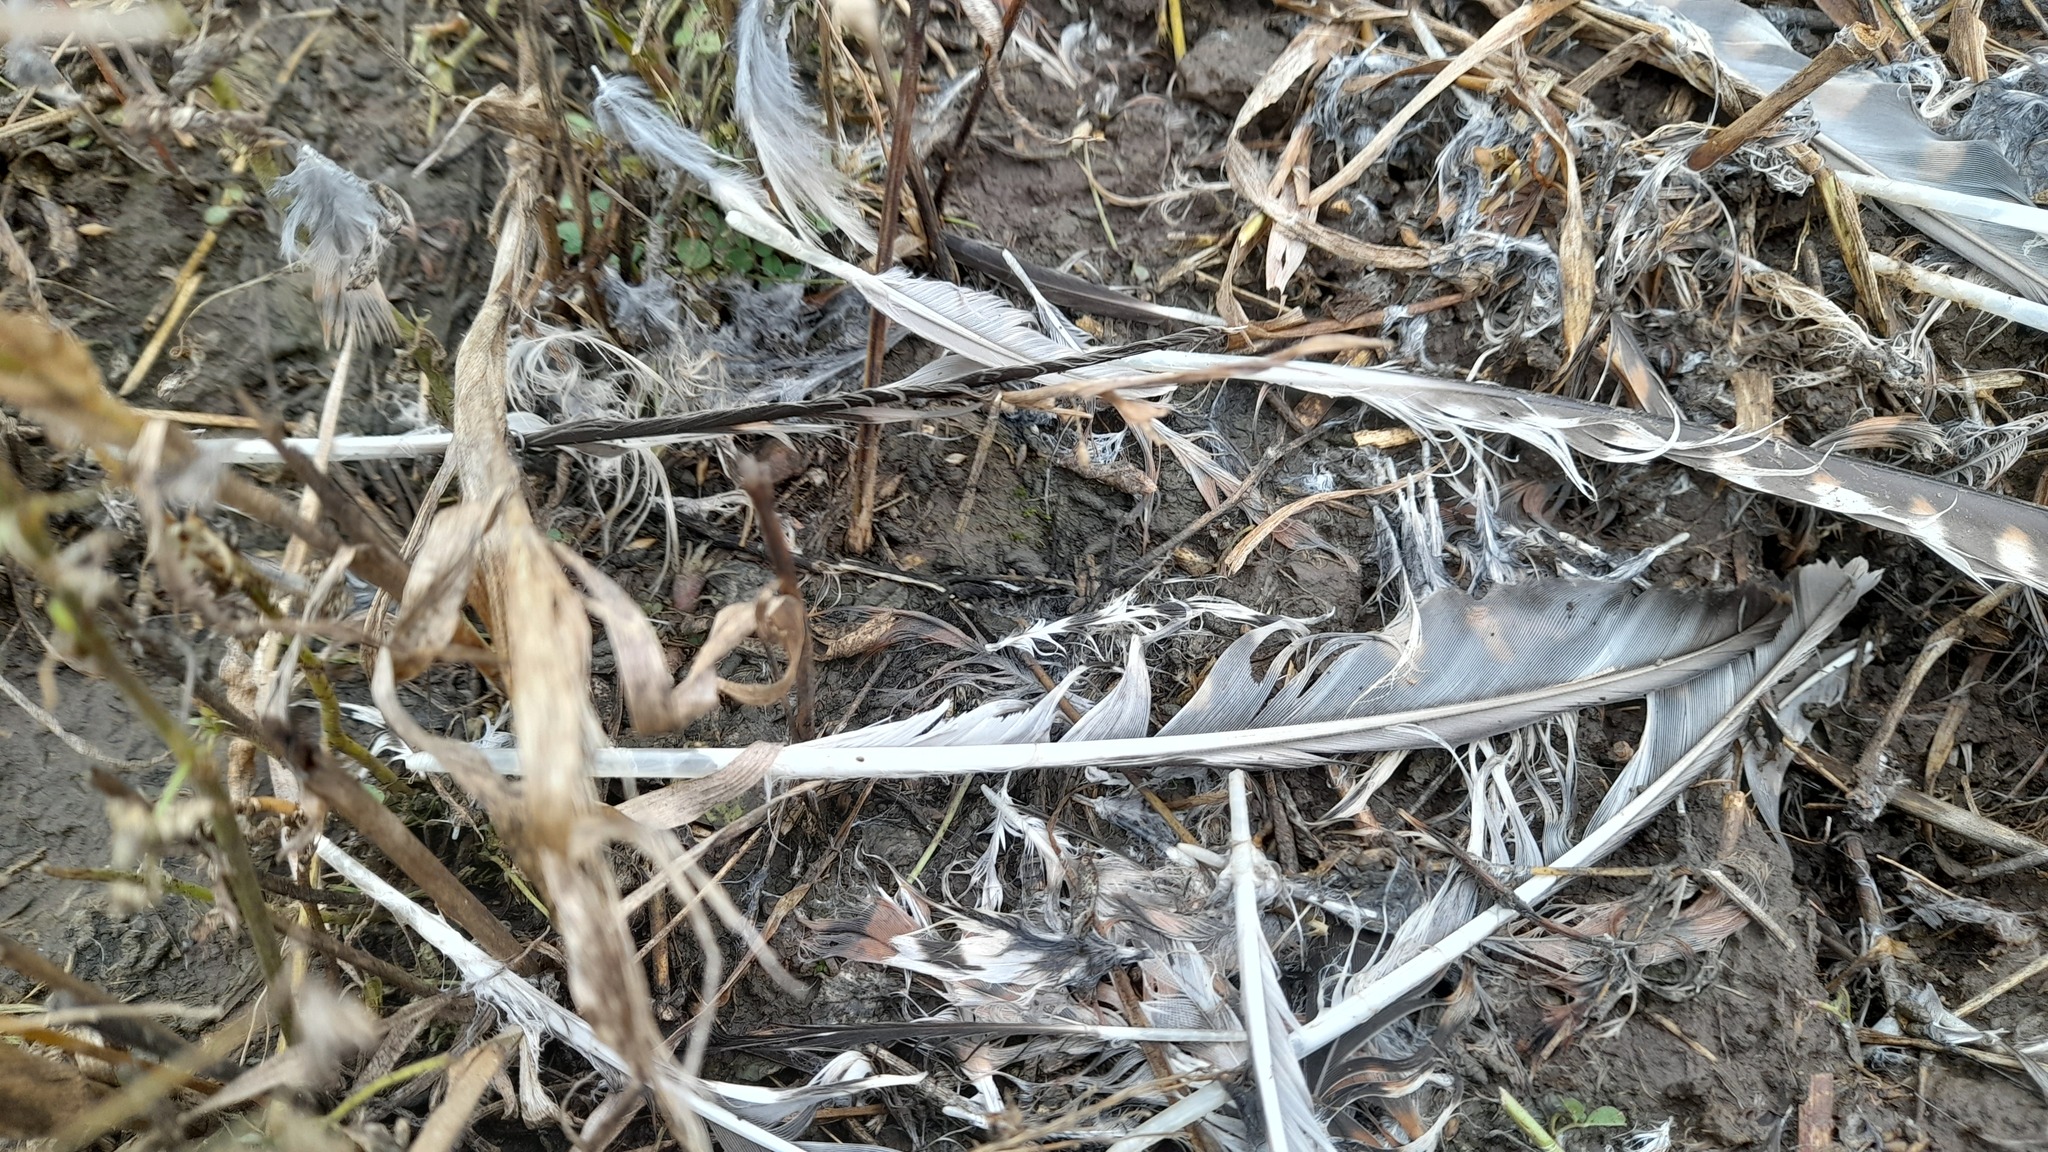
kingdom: Animalia
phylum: Chordata
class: Aves
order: Falconiformes
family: Falconidae
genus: Falco
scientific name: Falco tinnunculus
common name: Common kestrel
